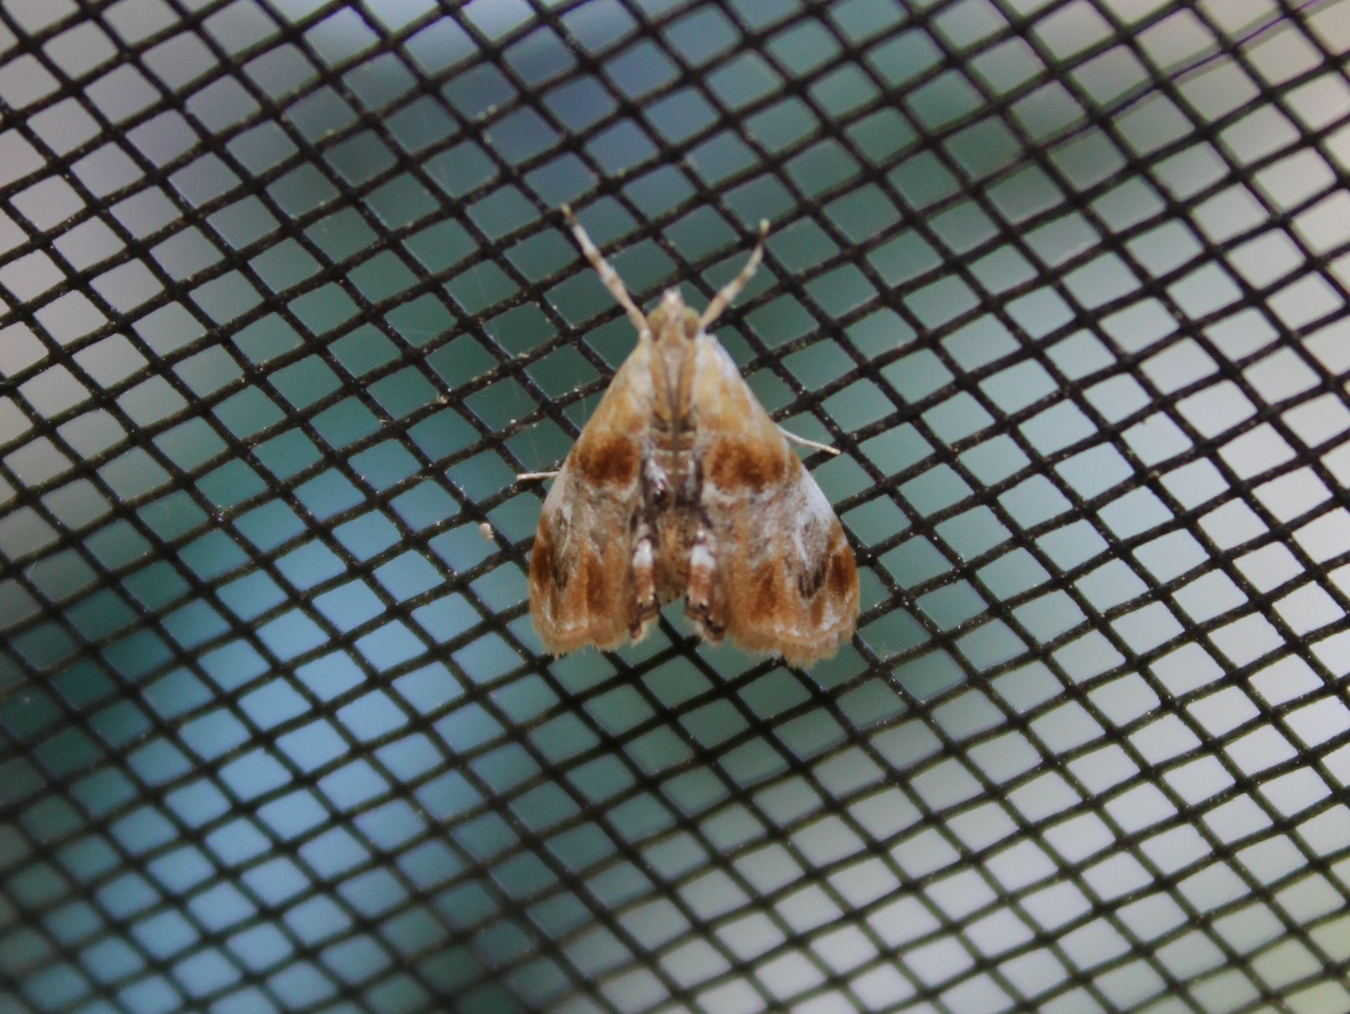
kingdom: Animalia
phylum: Arthropoda
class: Insecta
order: Lepidoptera
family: Crambidae
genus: Dicymolomia
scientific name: Dicymolomia julianalis
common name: Julia's dicymolomia moth
